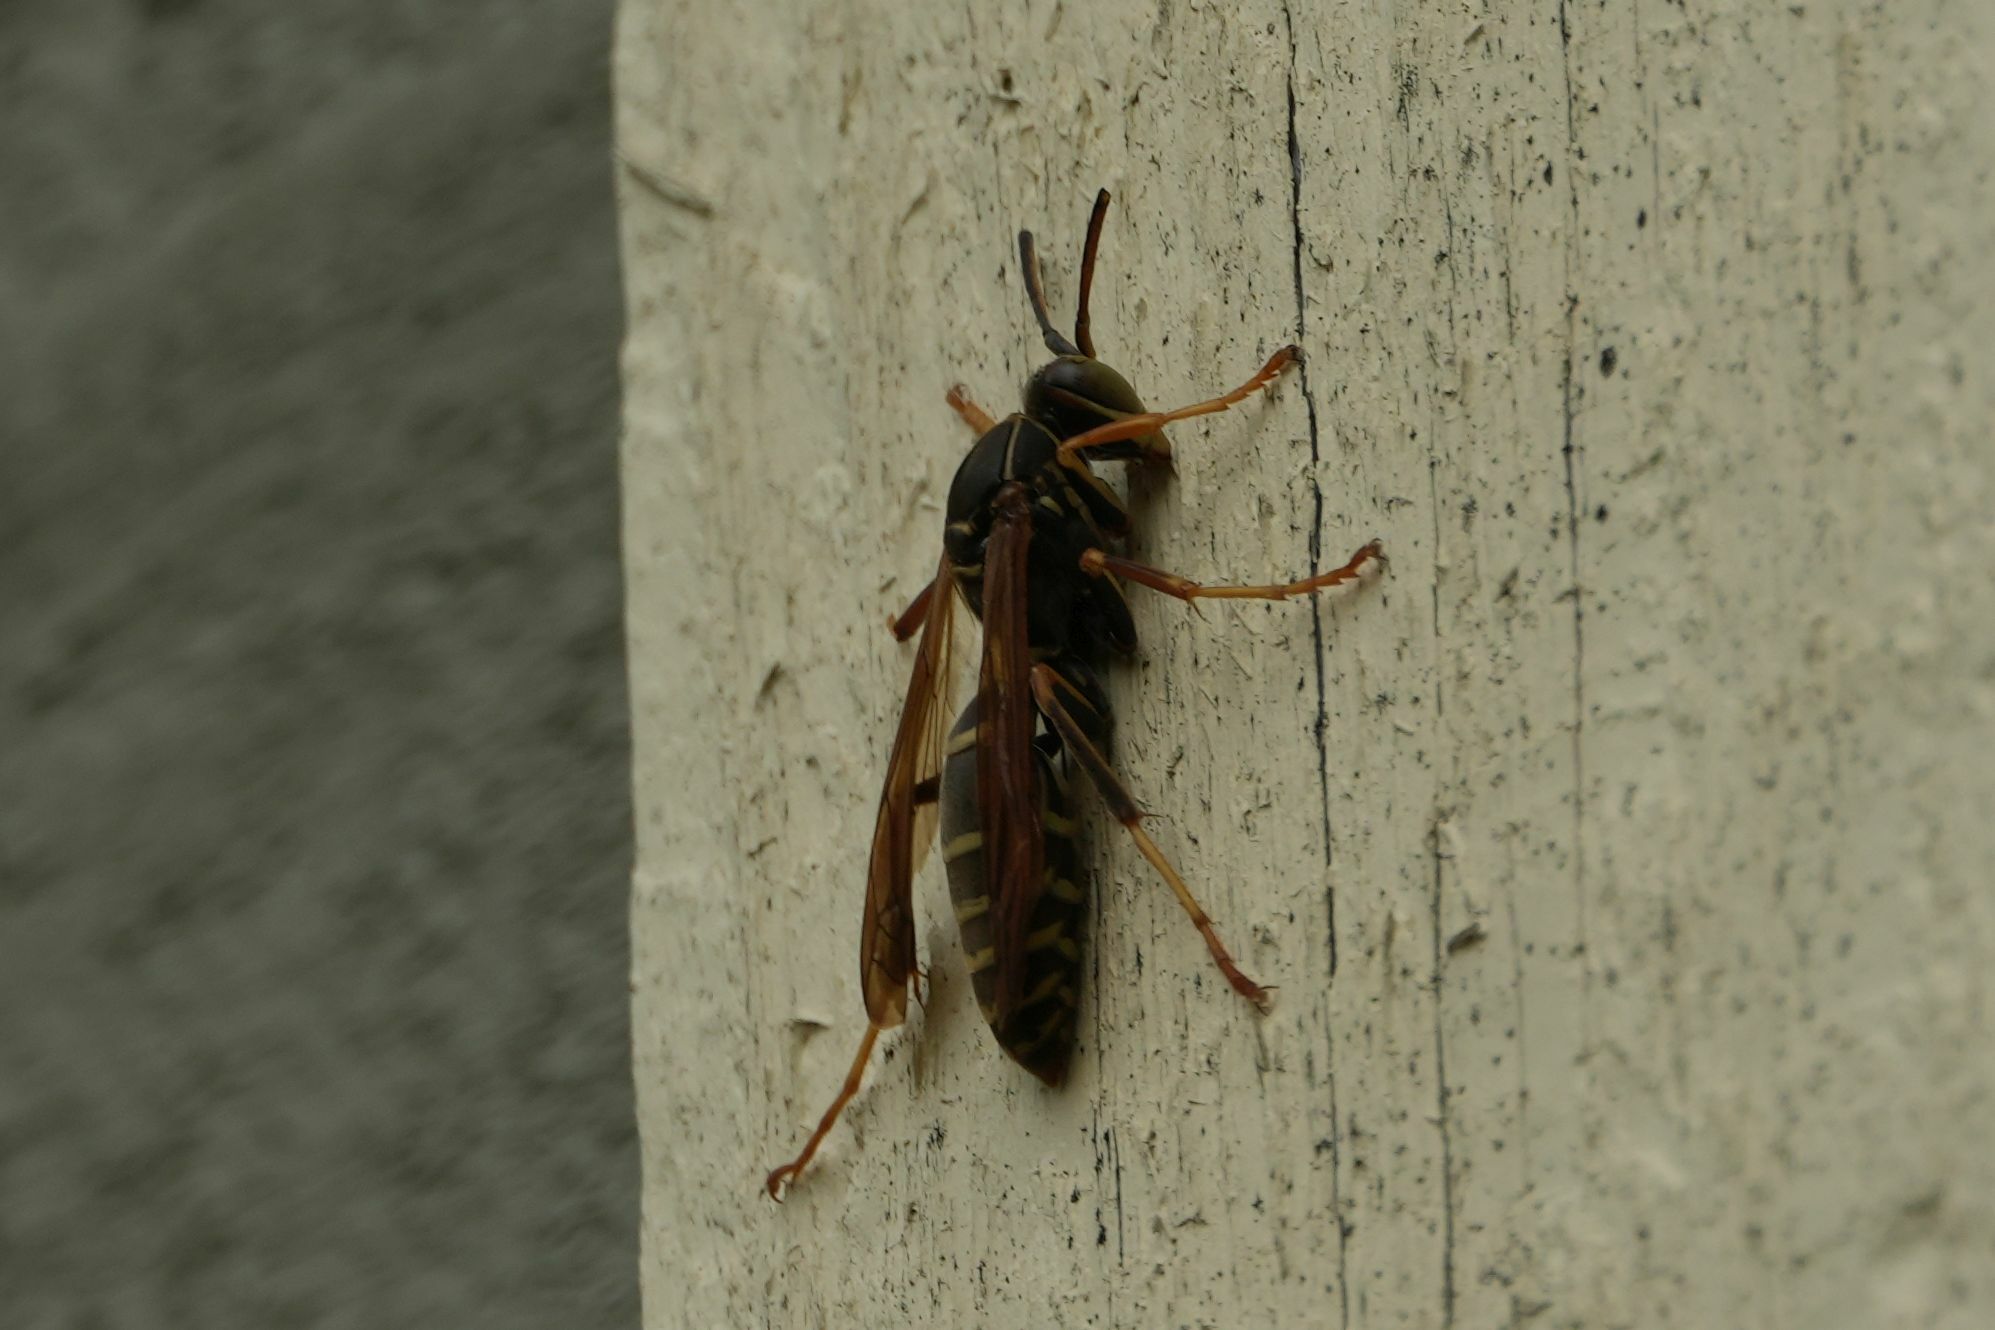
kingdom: Animalia
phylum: Arthropoda
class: Insecta
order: Hymenoptera
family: Eumenidae
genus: Polistes
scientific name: Polistes fuscatus
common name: Dark paper wasp
